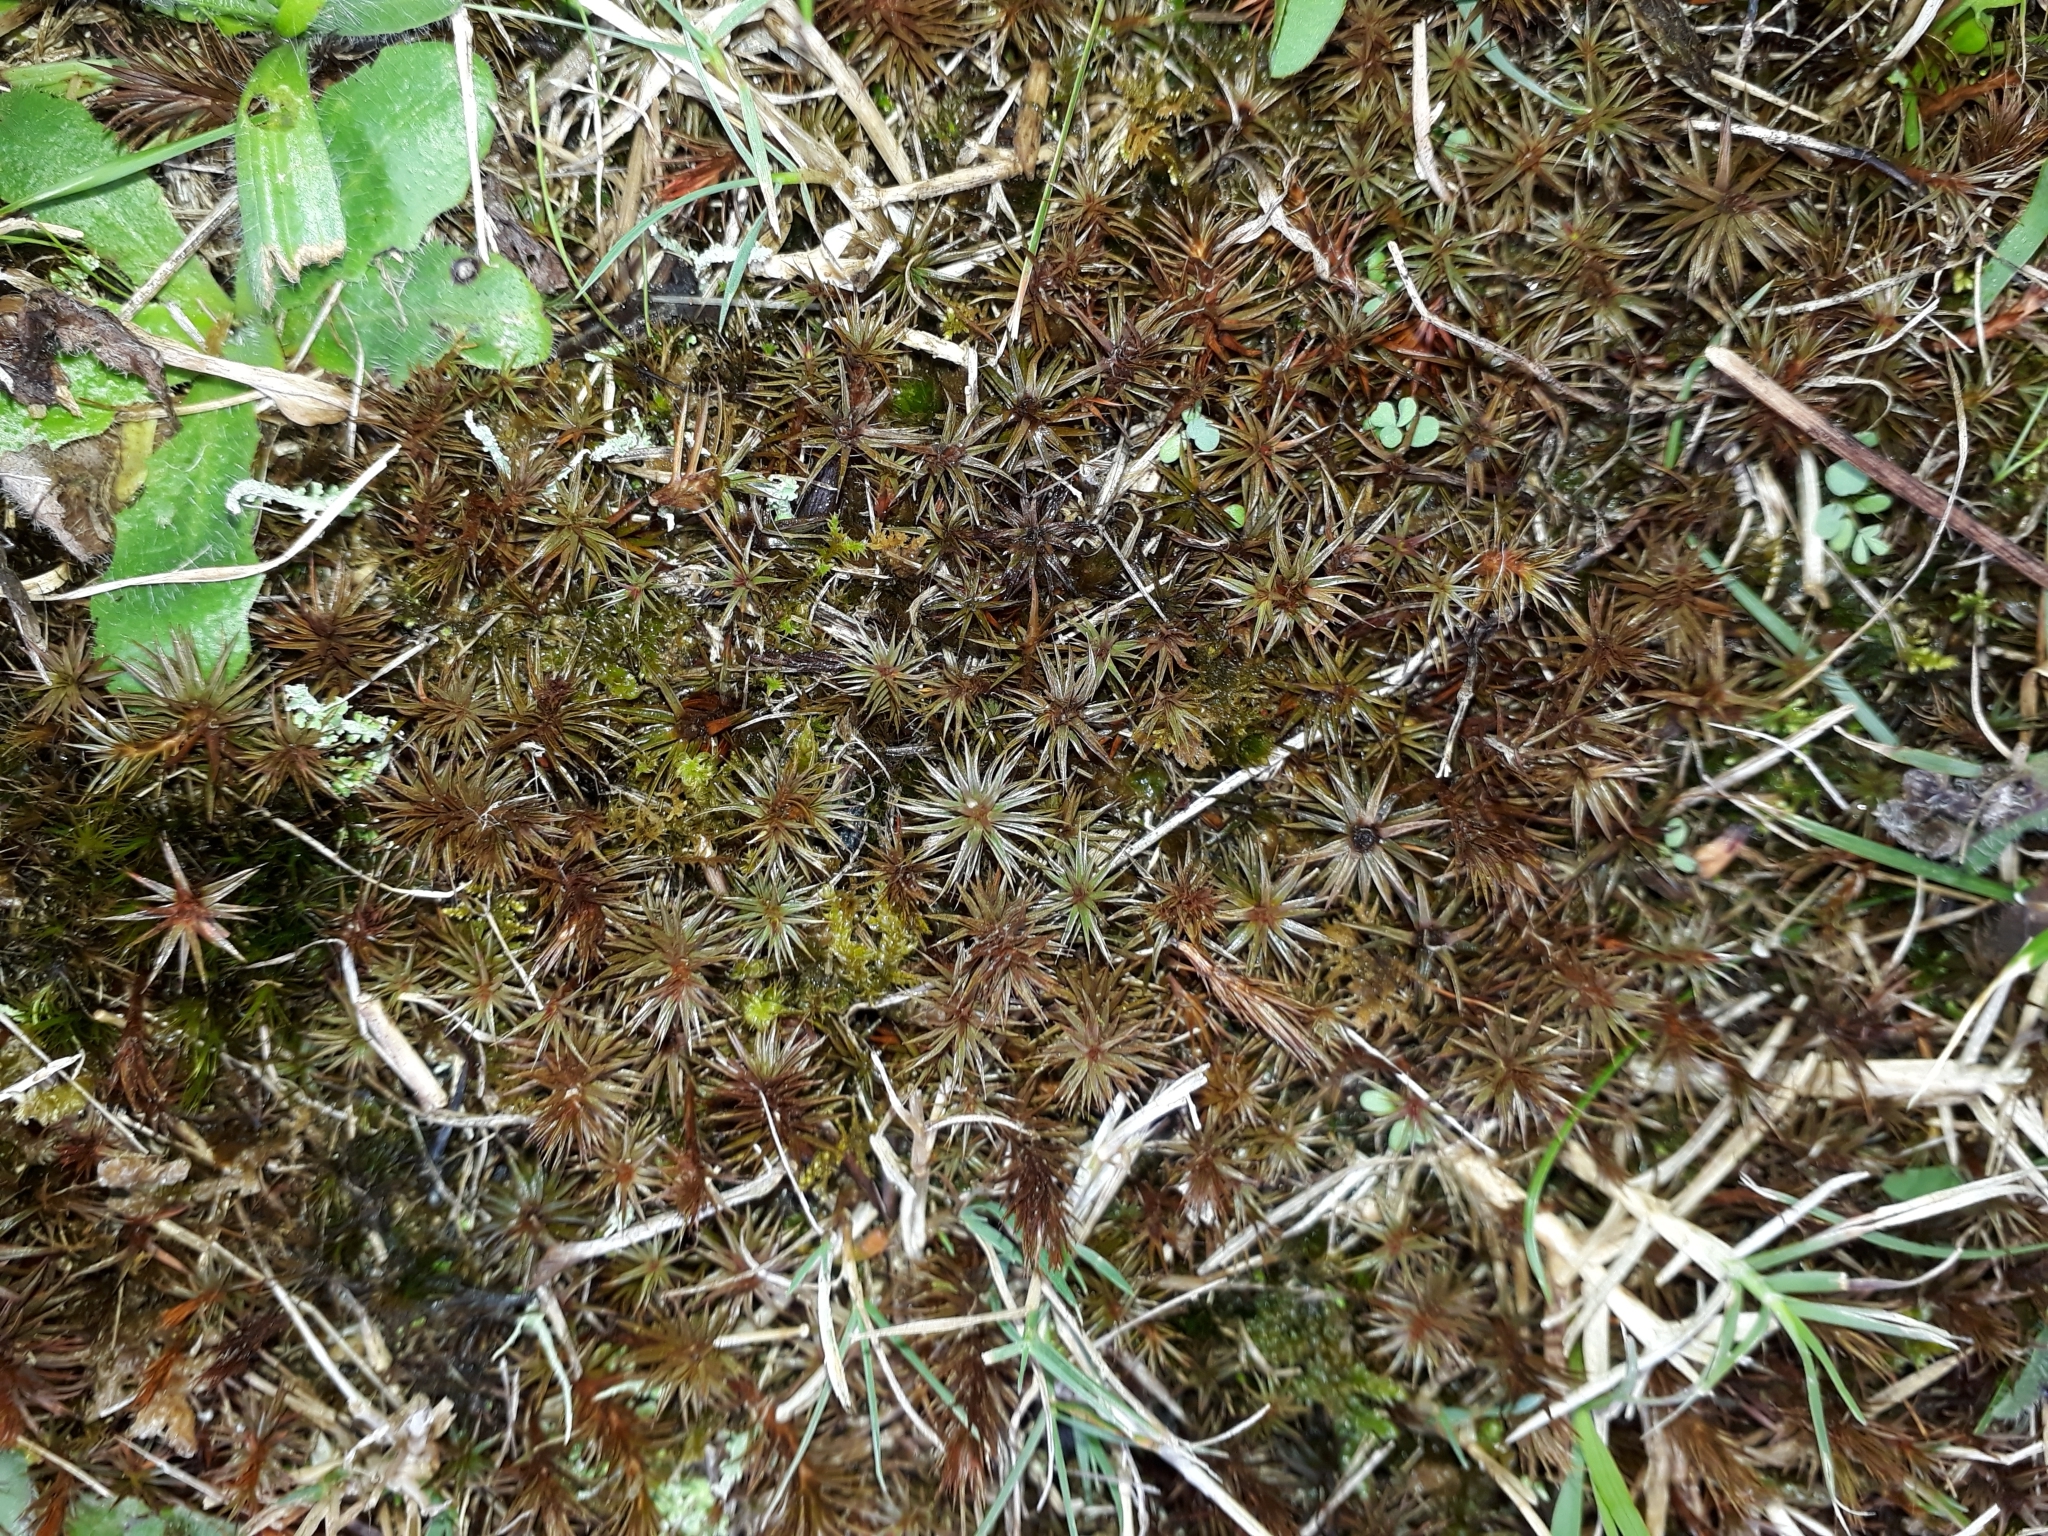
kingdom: Plantae
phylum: Bryophyta
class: Polytrichopsida
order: Polytrichales
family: Polytrichaceae
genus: Polytrichum
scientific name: Polytrichum juniperinum
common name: Juniper haircap moss
